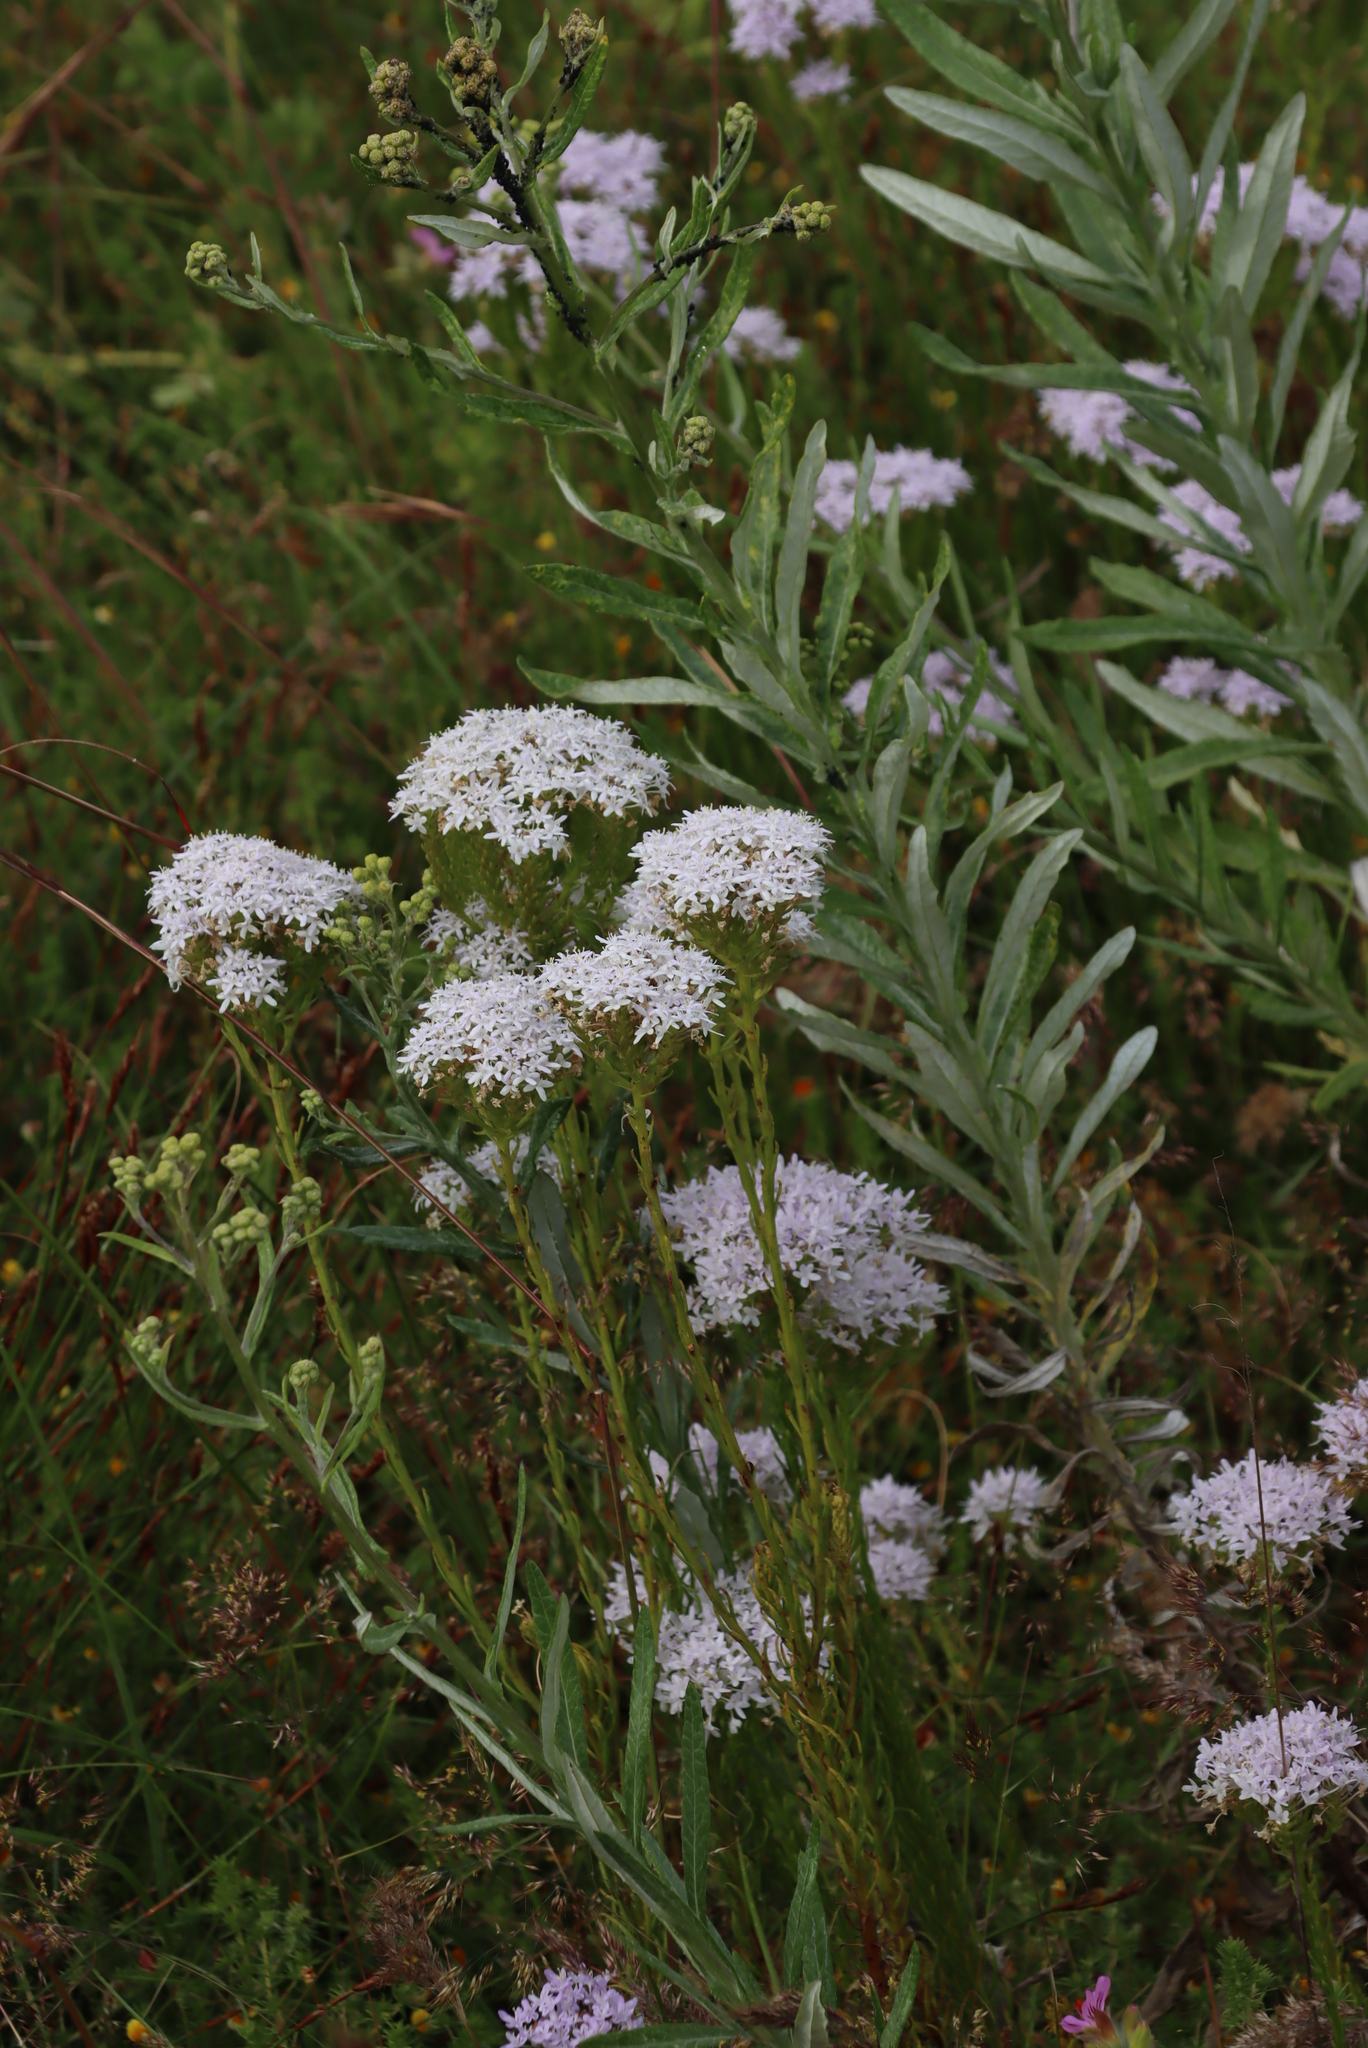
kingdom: Plantae
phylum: Tracheophyta
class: Magnoliopsida
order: Lamiales
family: Scrophulariaceae
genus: Pseudoselago
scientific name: Pseudoselago spuria
